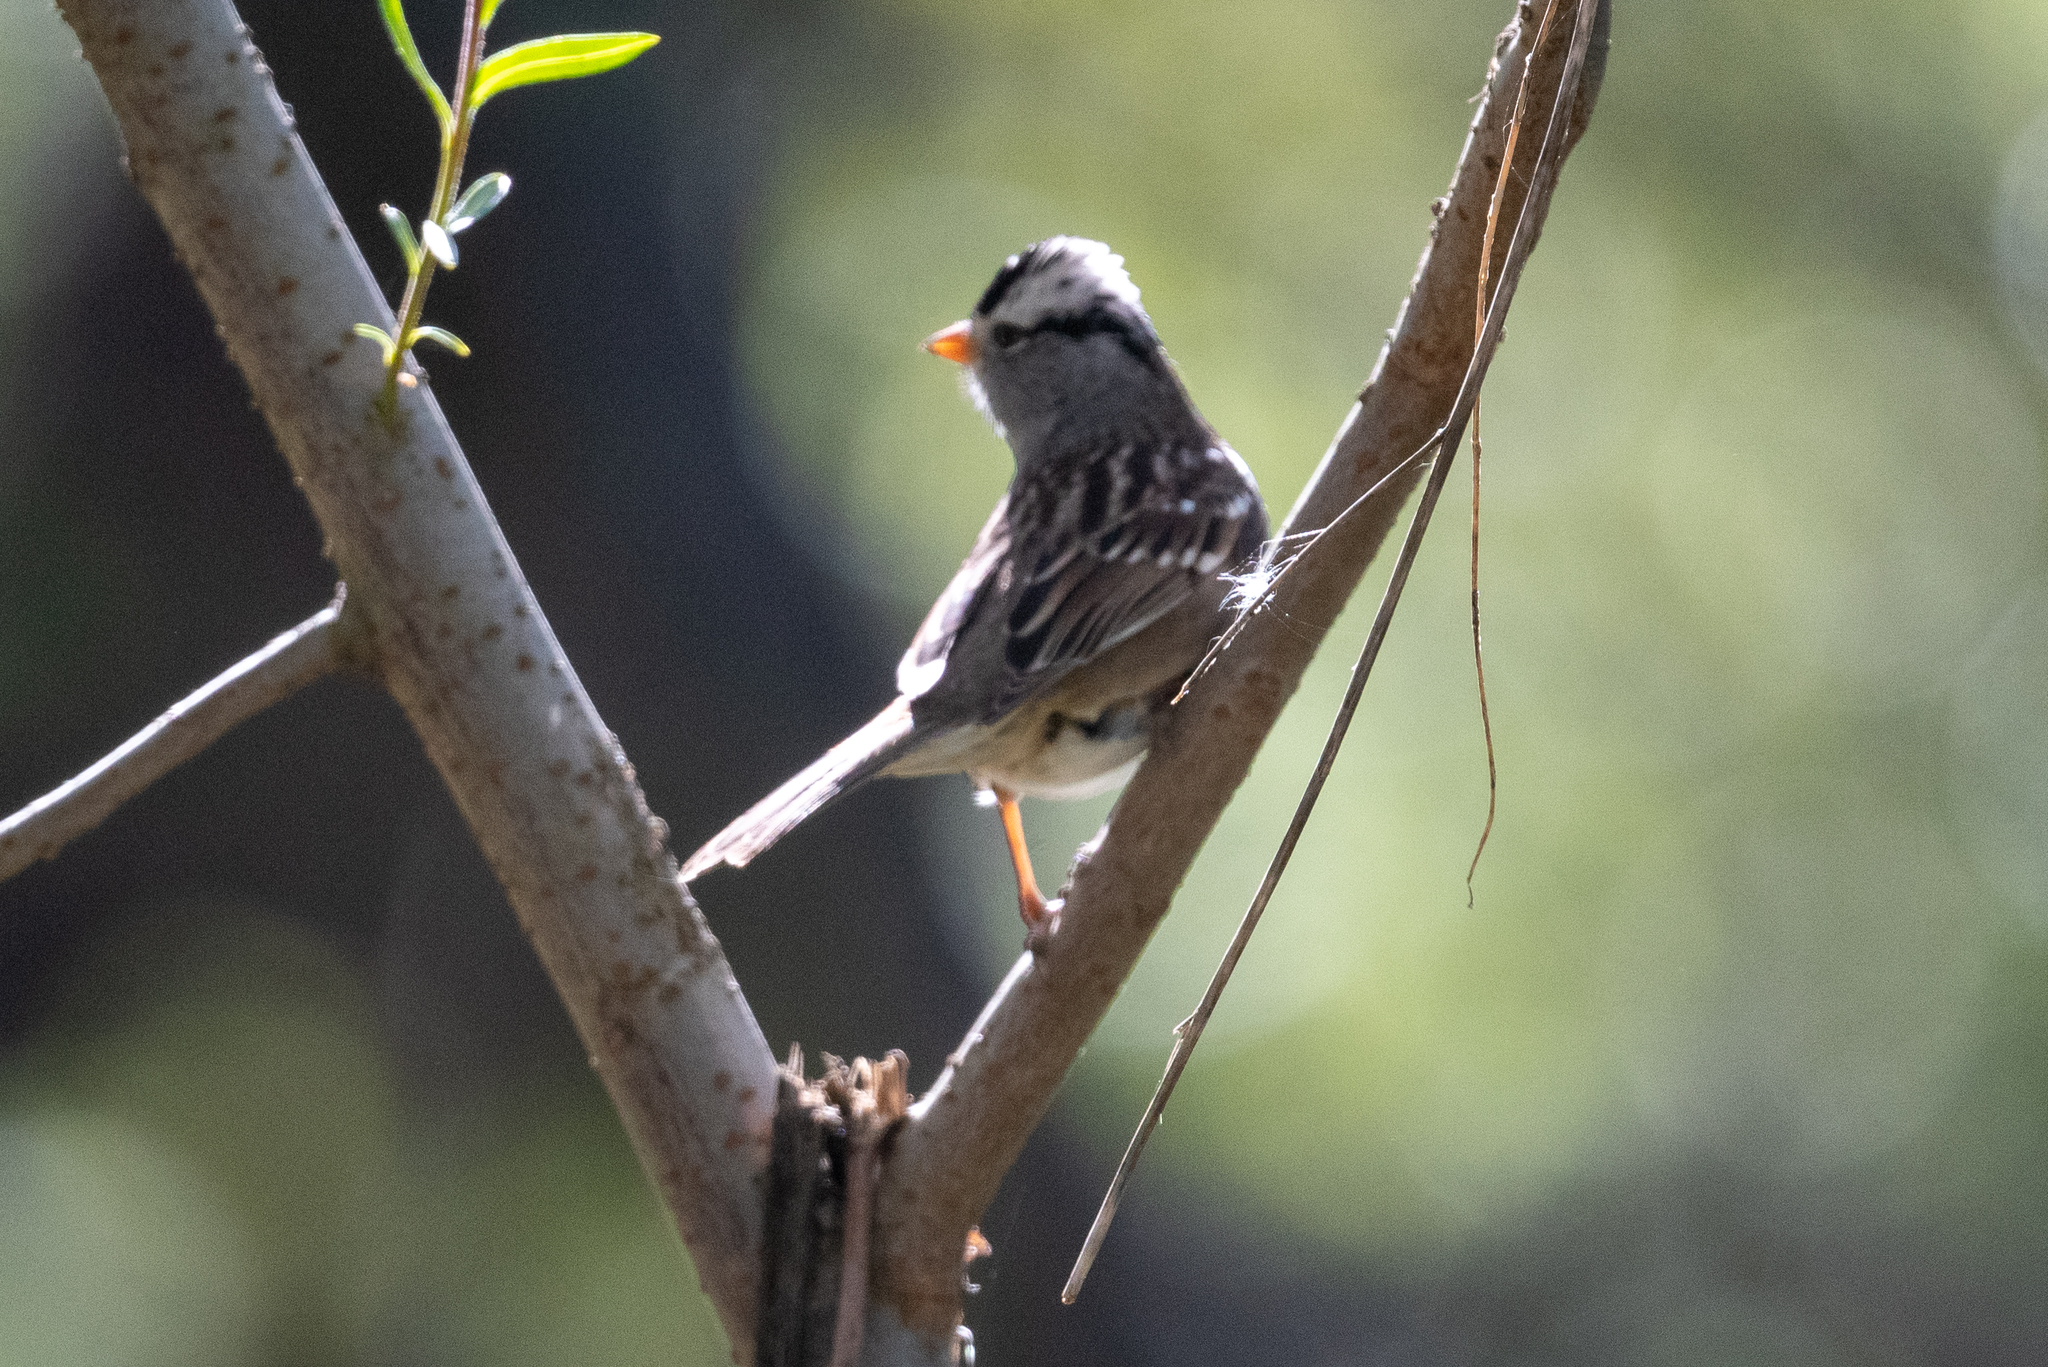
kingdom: Animalia
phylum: Chordata
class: Aves
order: Passeriformes
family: Passerellidae
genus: Zonotrichia
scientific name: Zonotrichia leucophrys
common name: White-crowned sparrow
